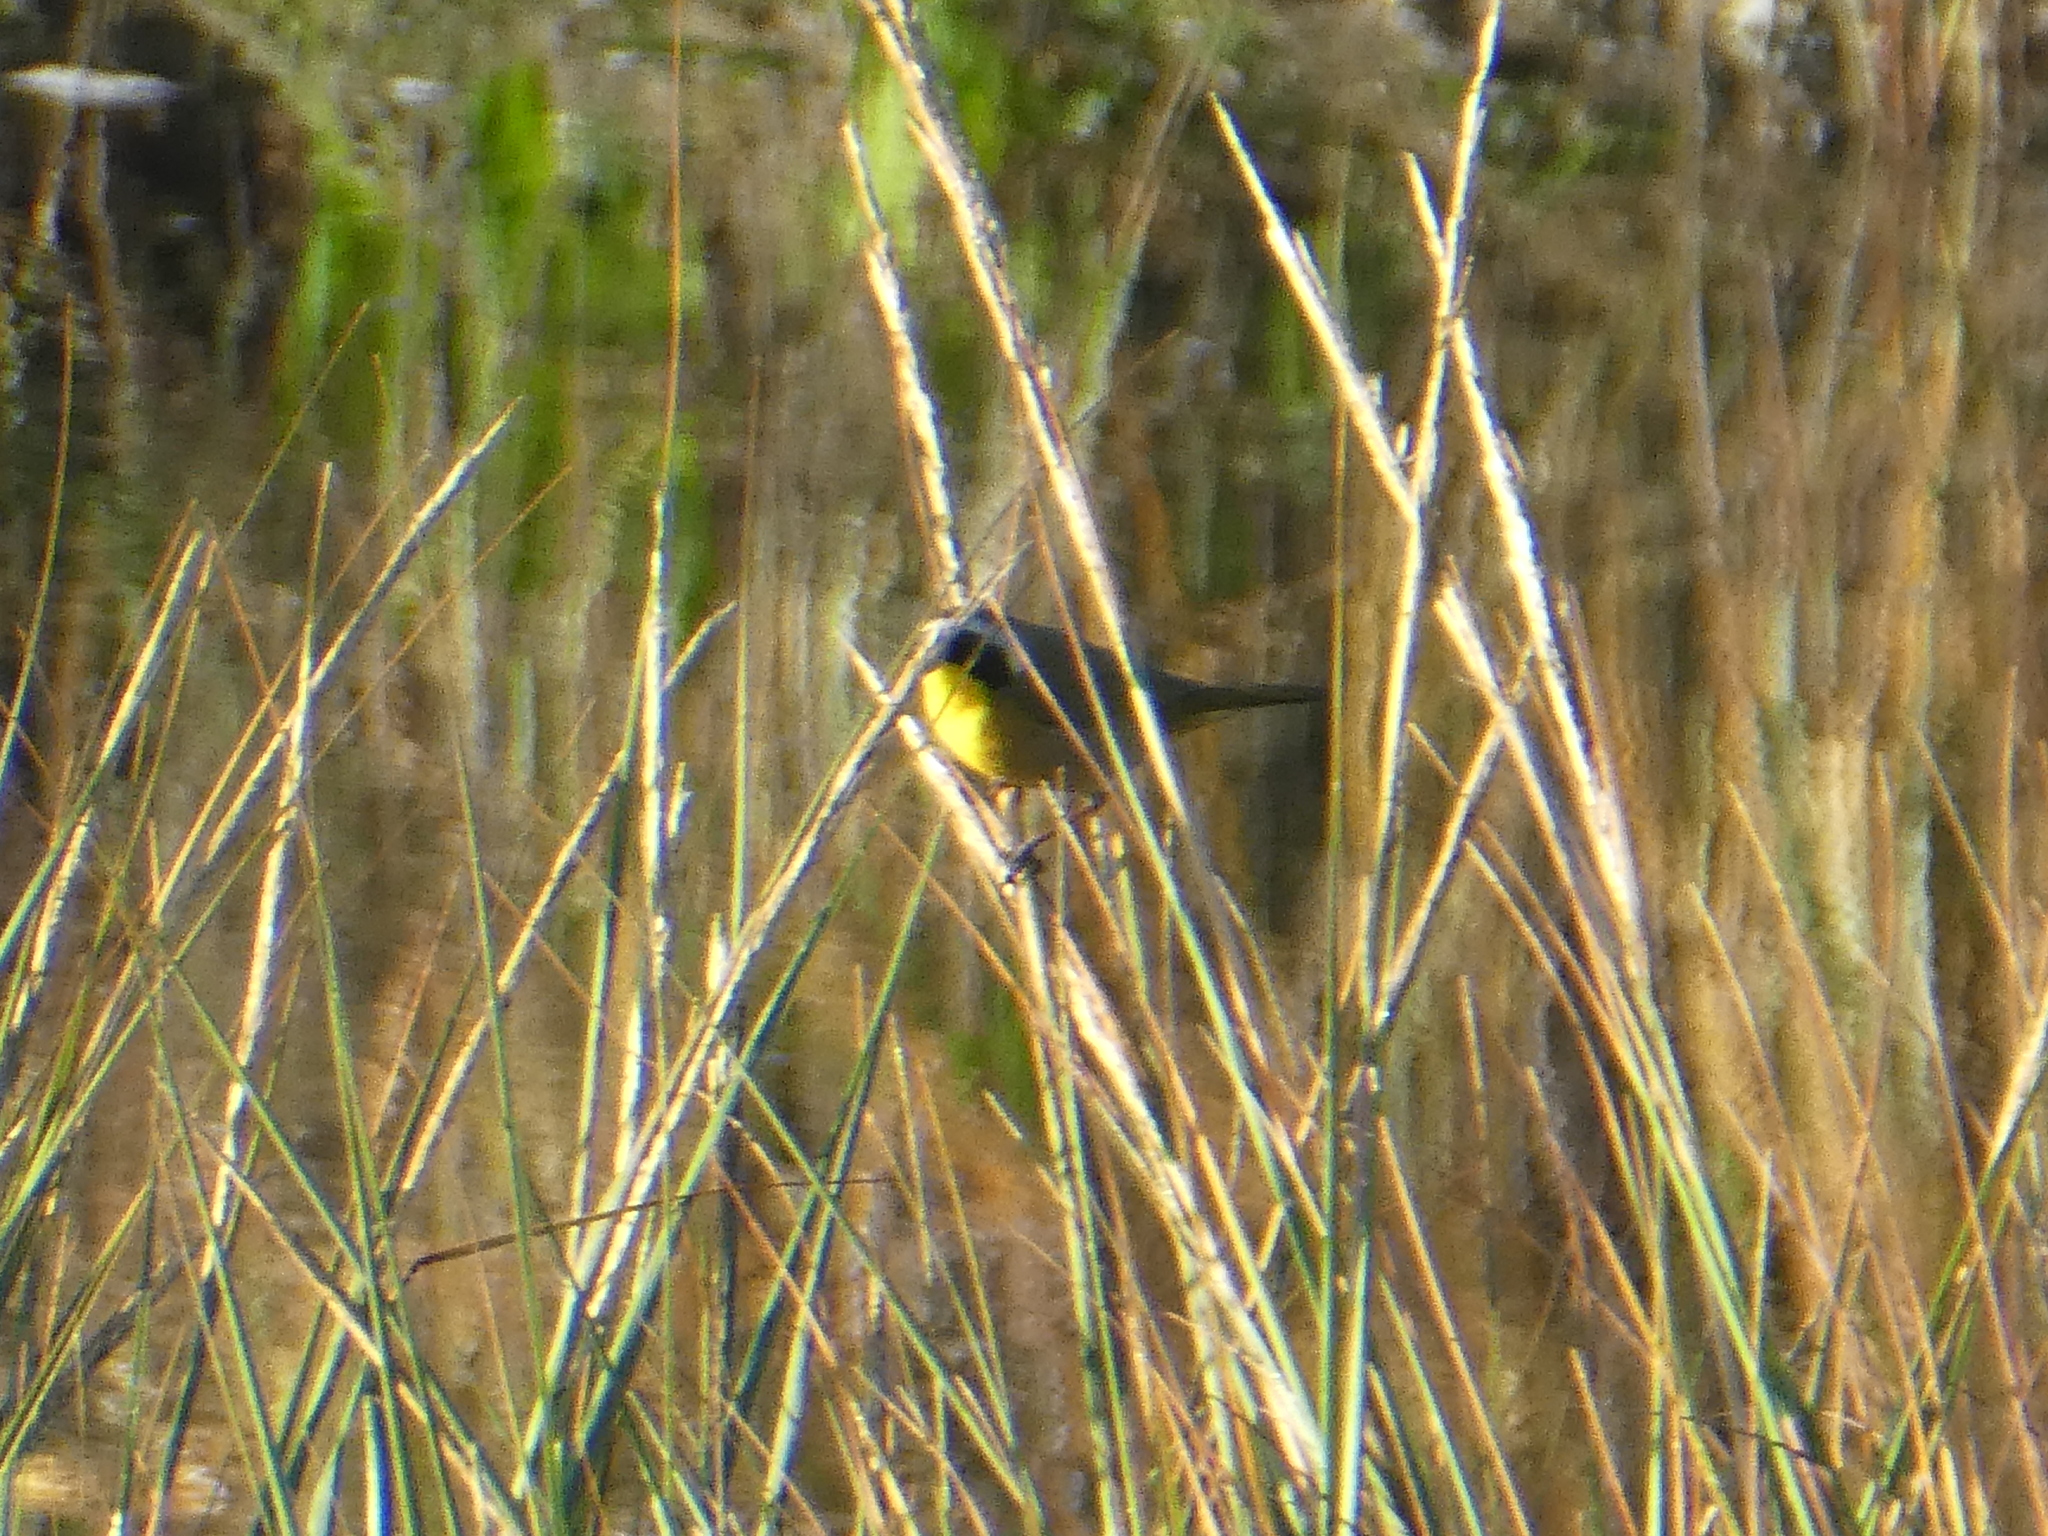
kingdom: Animalia
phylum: Chordata
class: Aves
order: Passeriformes
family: Parulidae
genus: Geothlypis
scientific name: Geothlypis trichas
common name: Common yellowthroat
